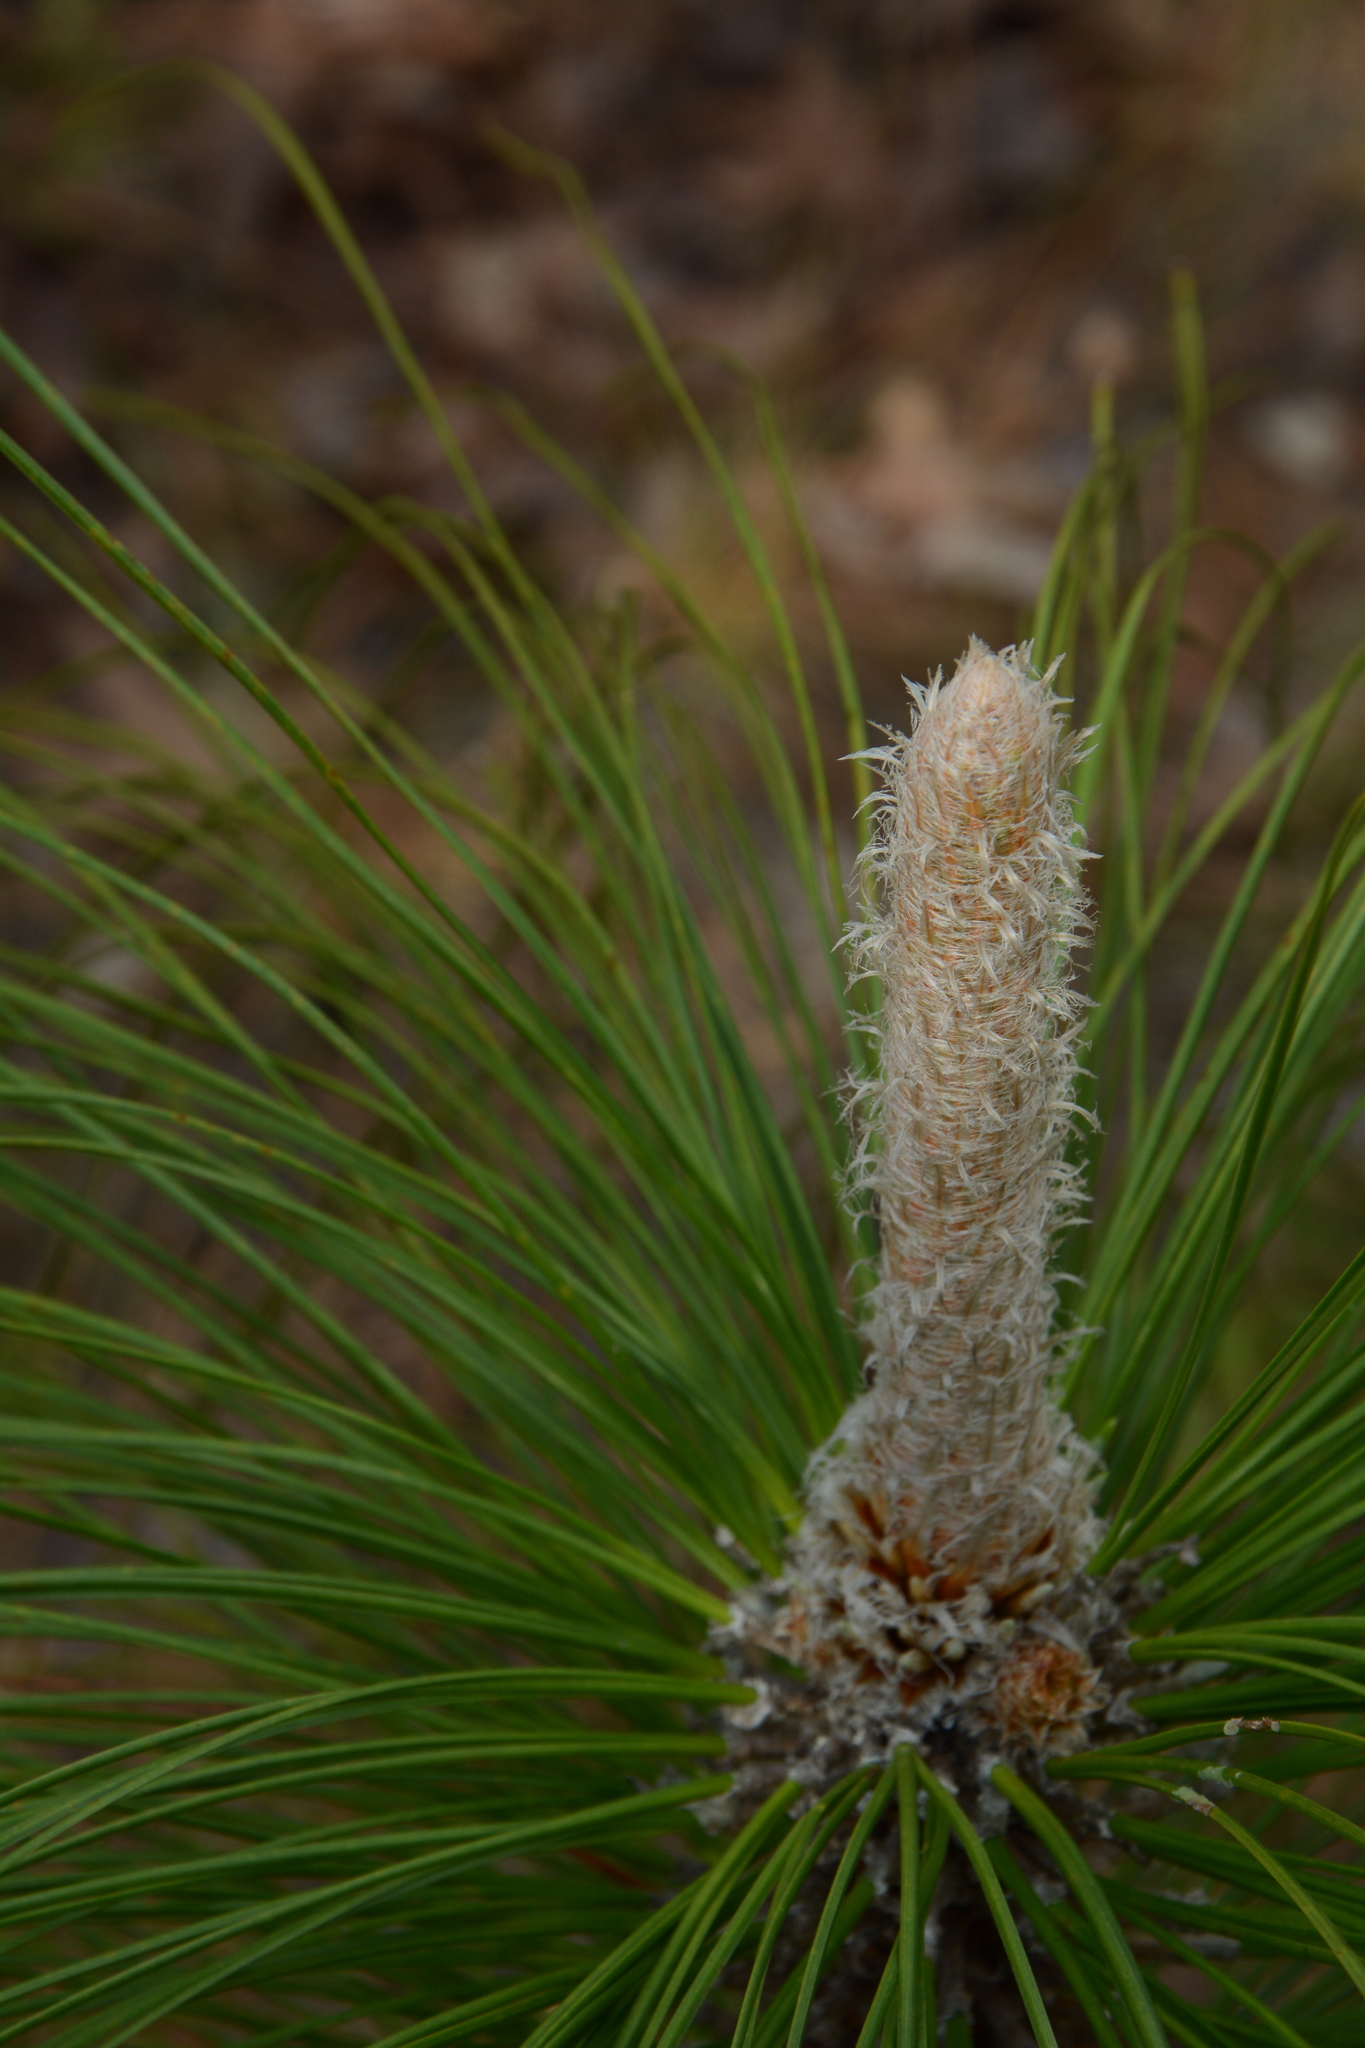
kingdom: Plantae
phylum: Tracheophyta
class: Pinopsida
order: Pinales
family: Pinaceae
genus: Pinus
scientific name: Pinus palustris
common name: Longleaf pine
